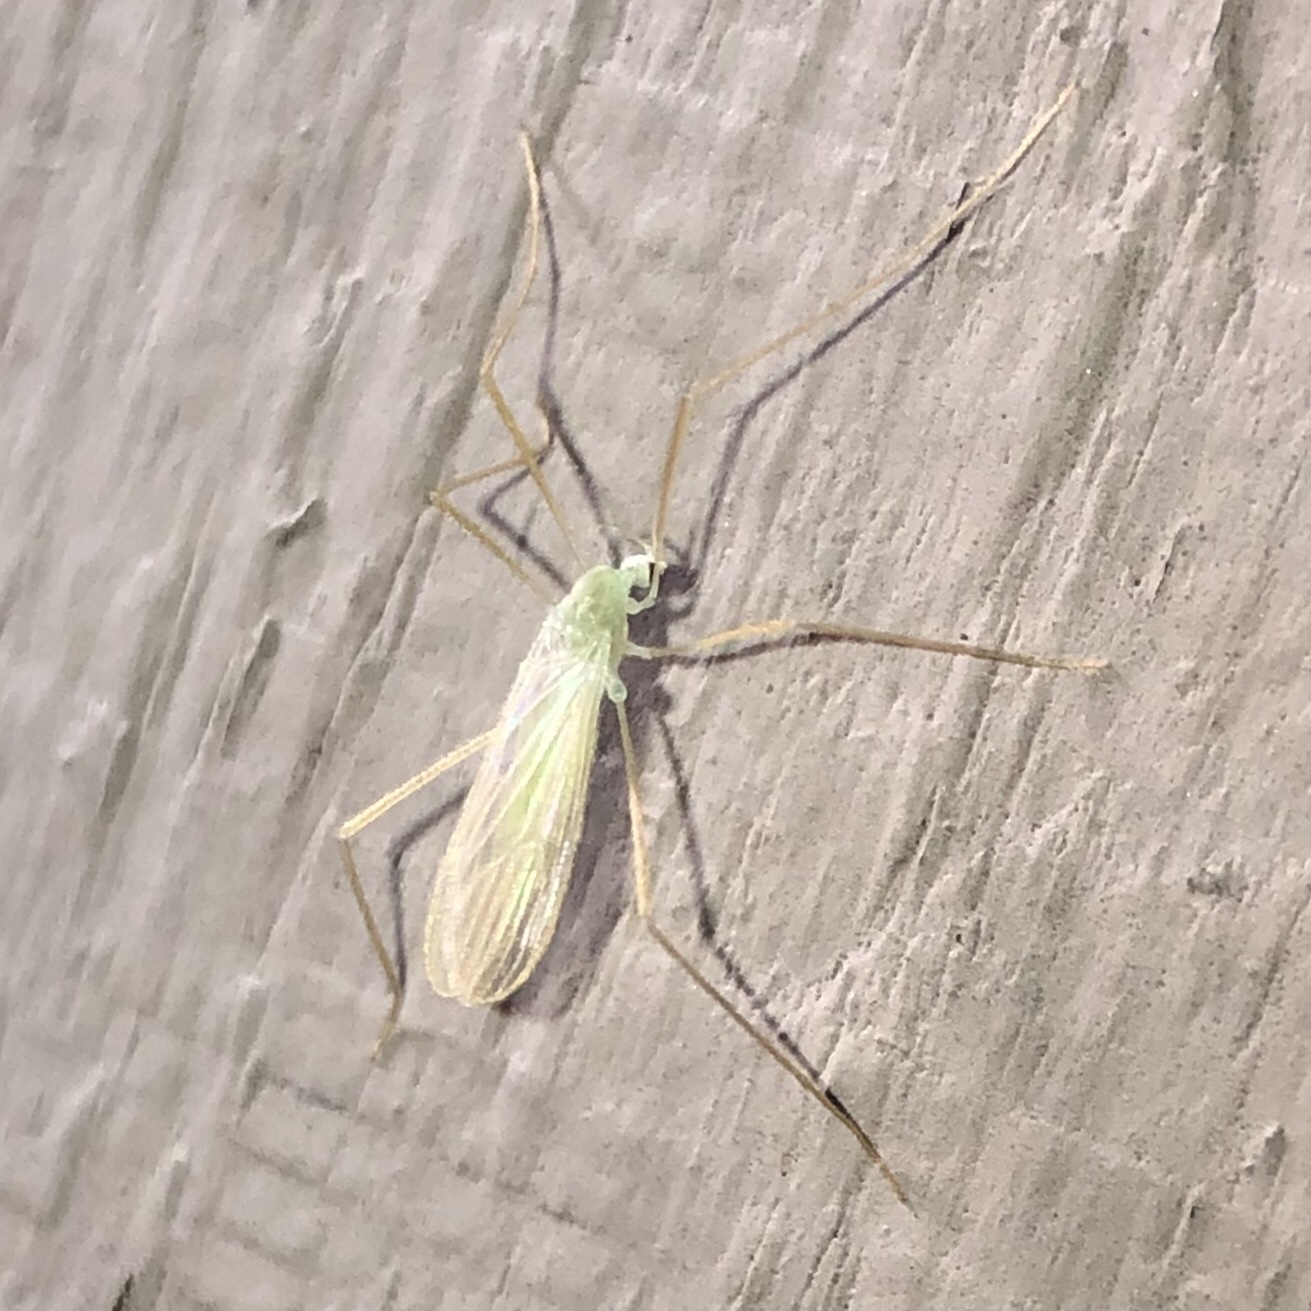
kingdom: Animalia
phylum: Arthropoda
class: Insecta
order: Diptera
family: Limoniidae
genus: Erioptera
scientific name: Erioptera
